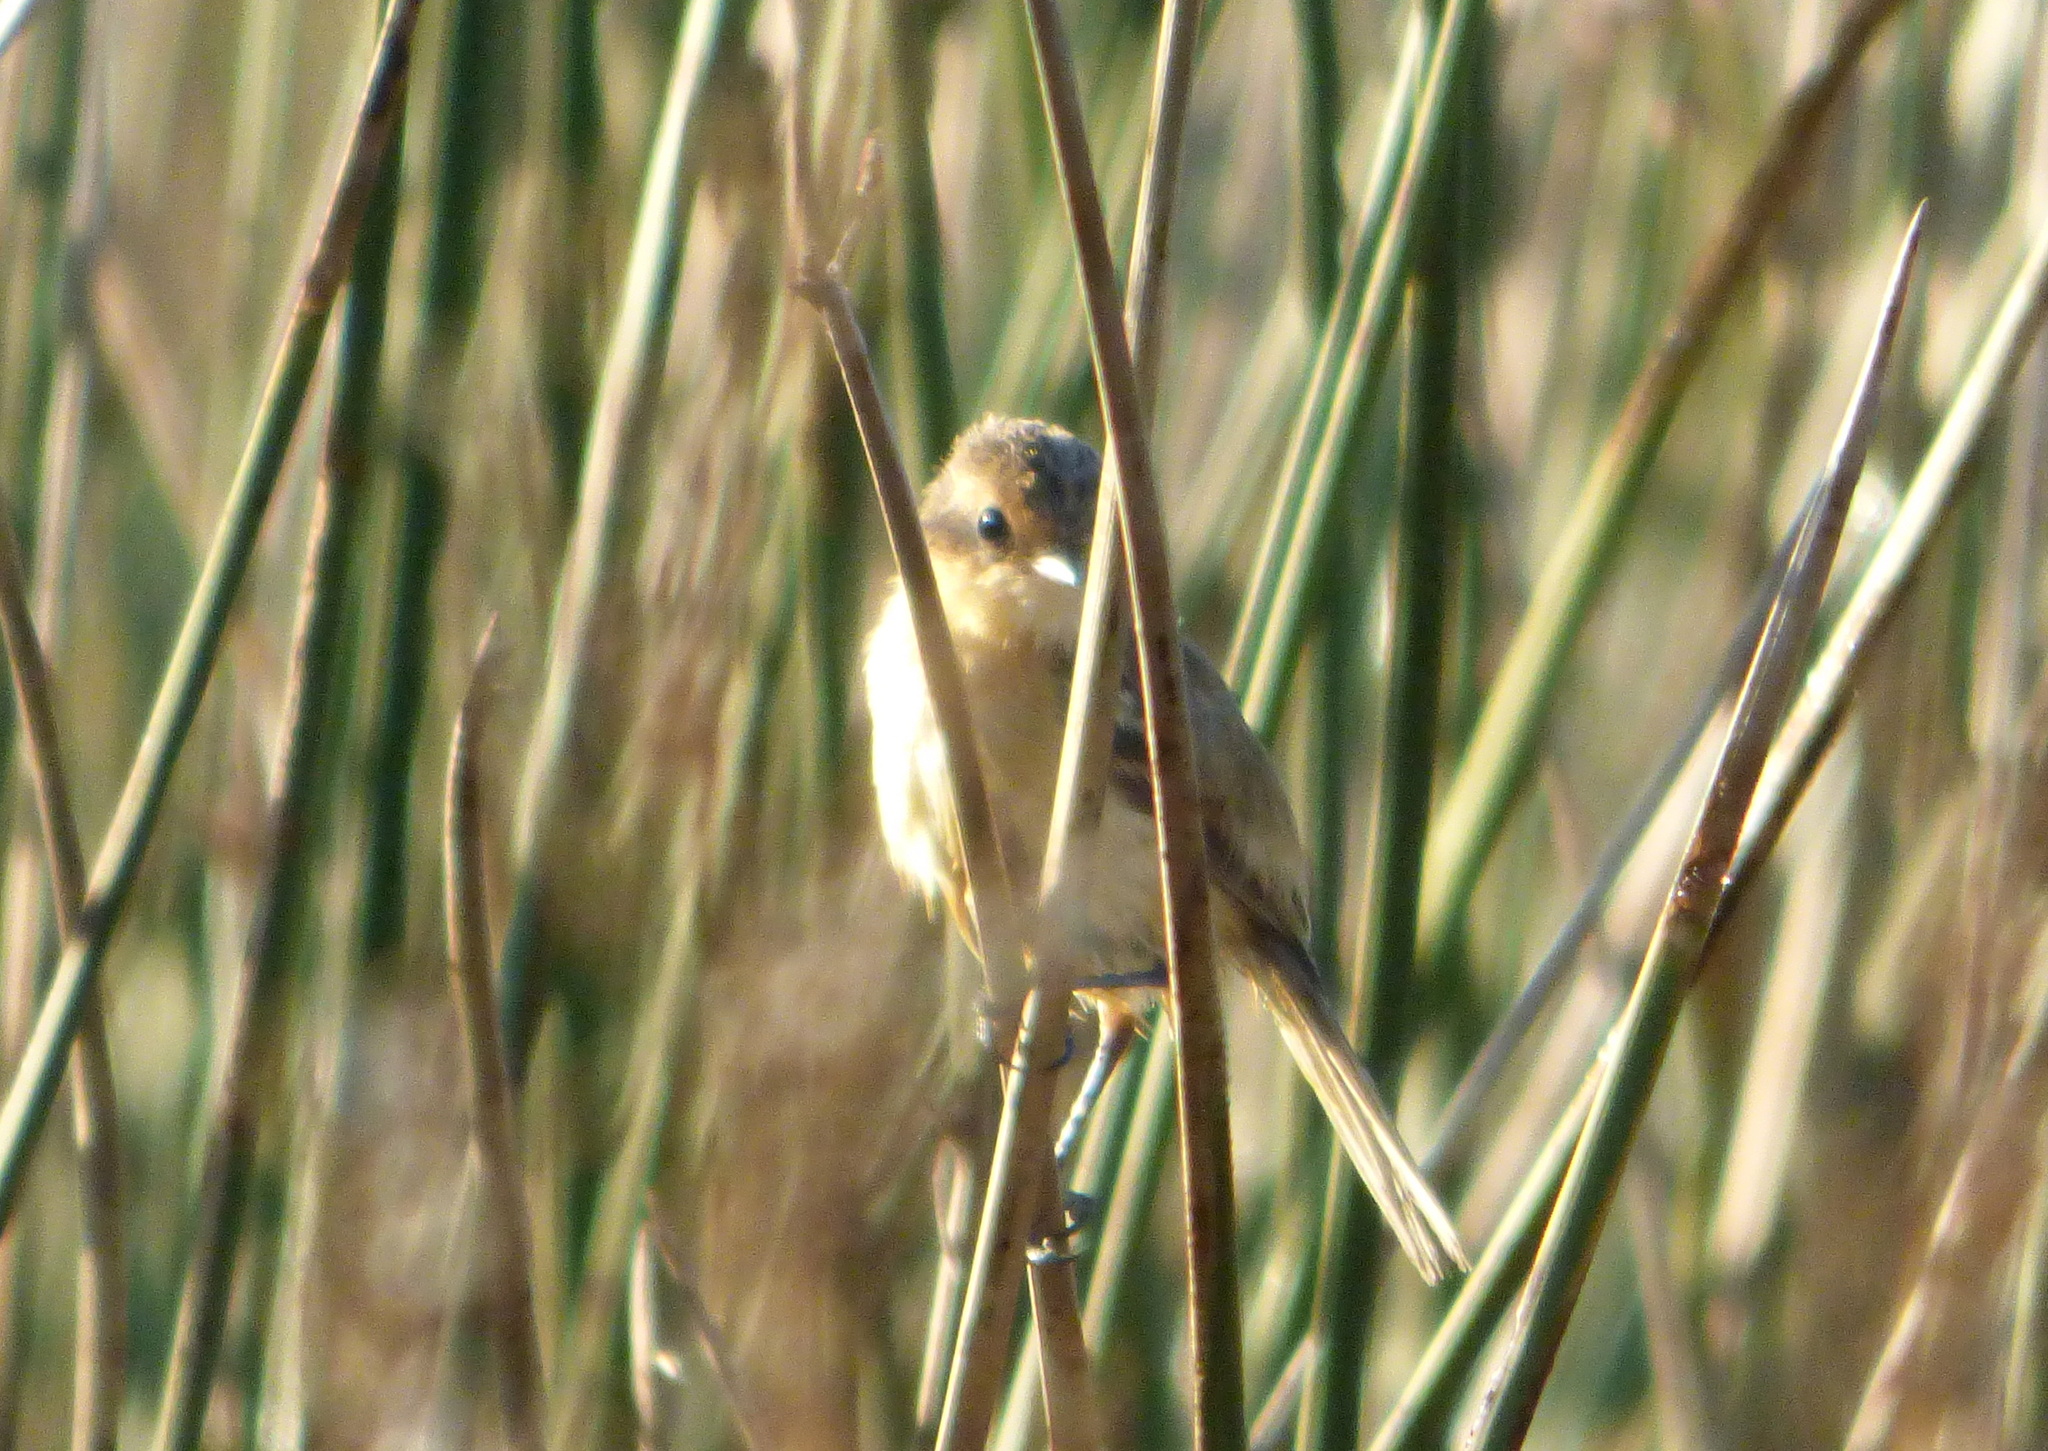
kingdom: Animalia
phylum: Chordata
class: Aves
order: Passeriformes
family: Tyrannidae
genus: Polystictus
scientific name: Polystictus pectoralis
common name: Bearded tachuri
